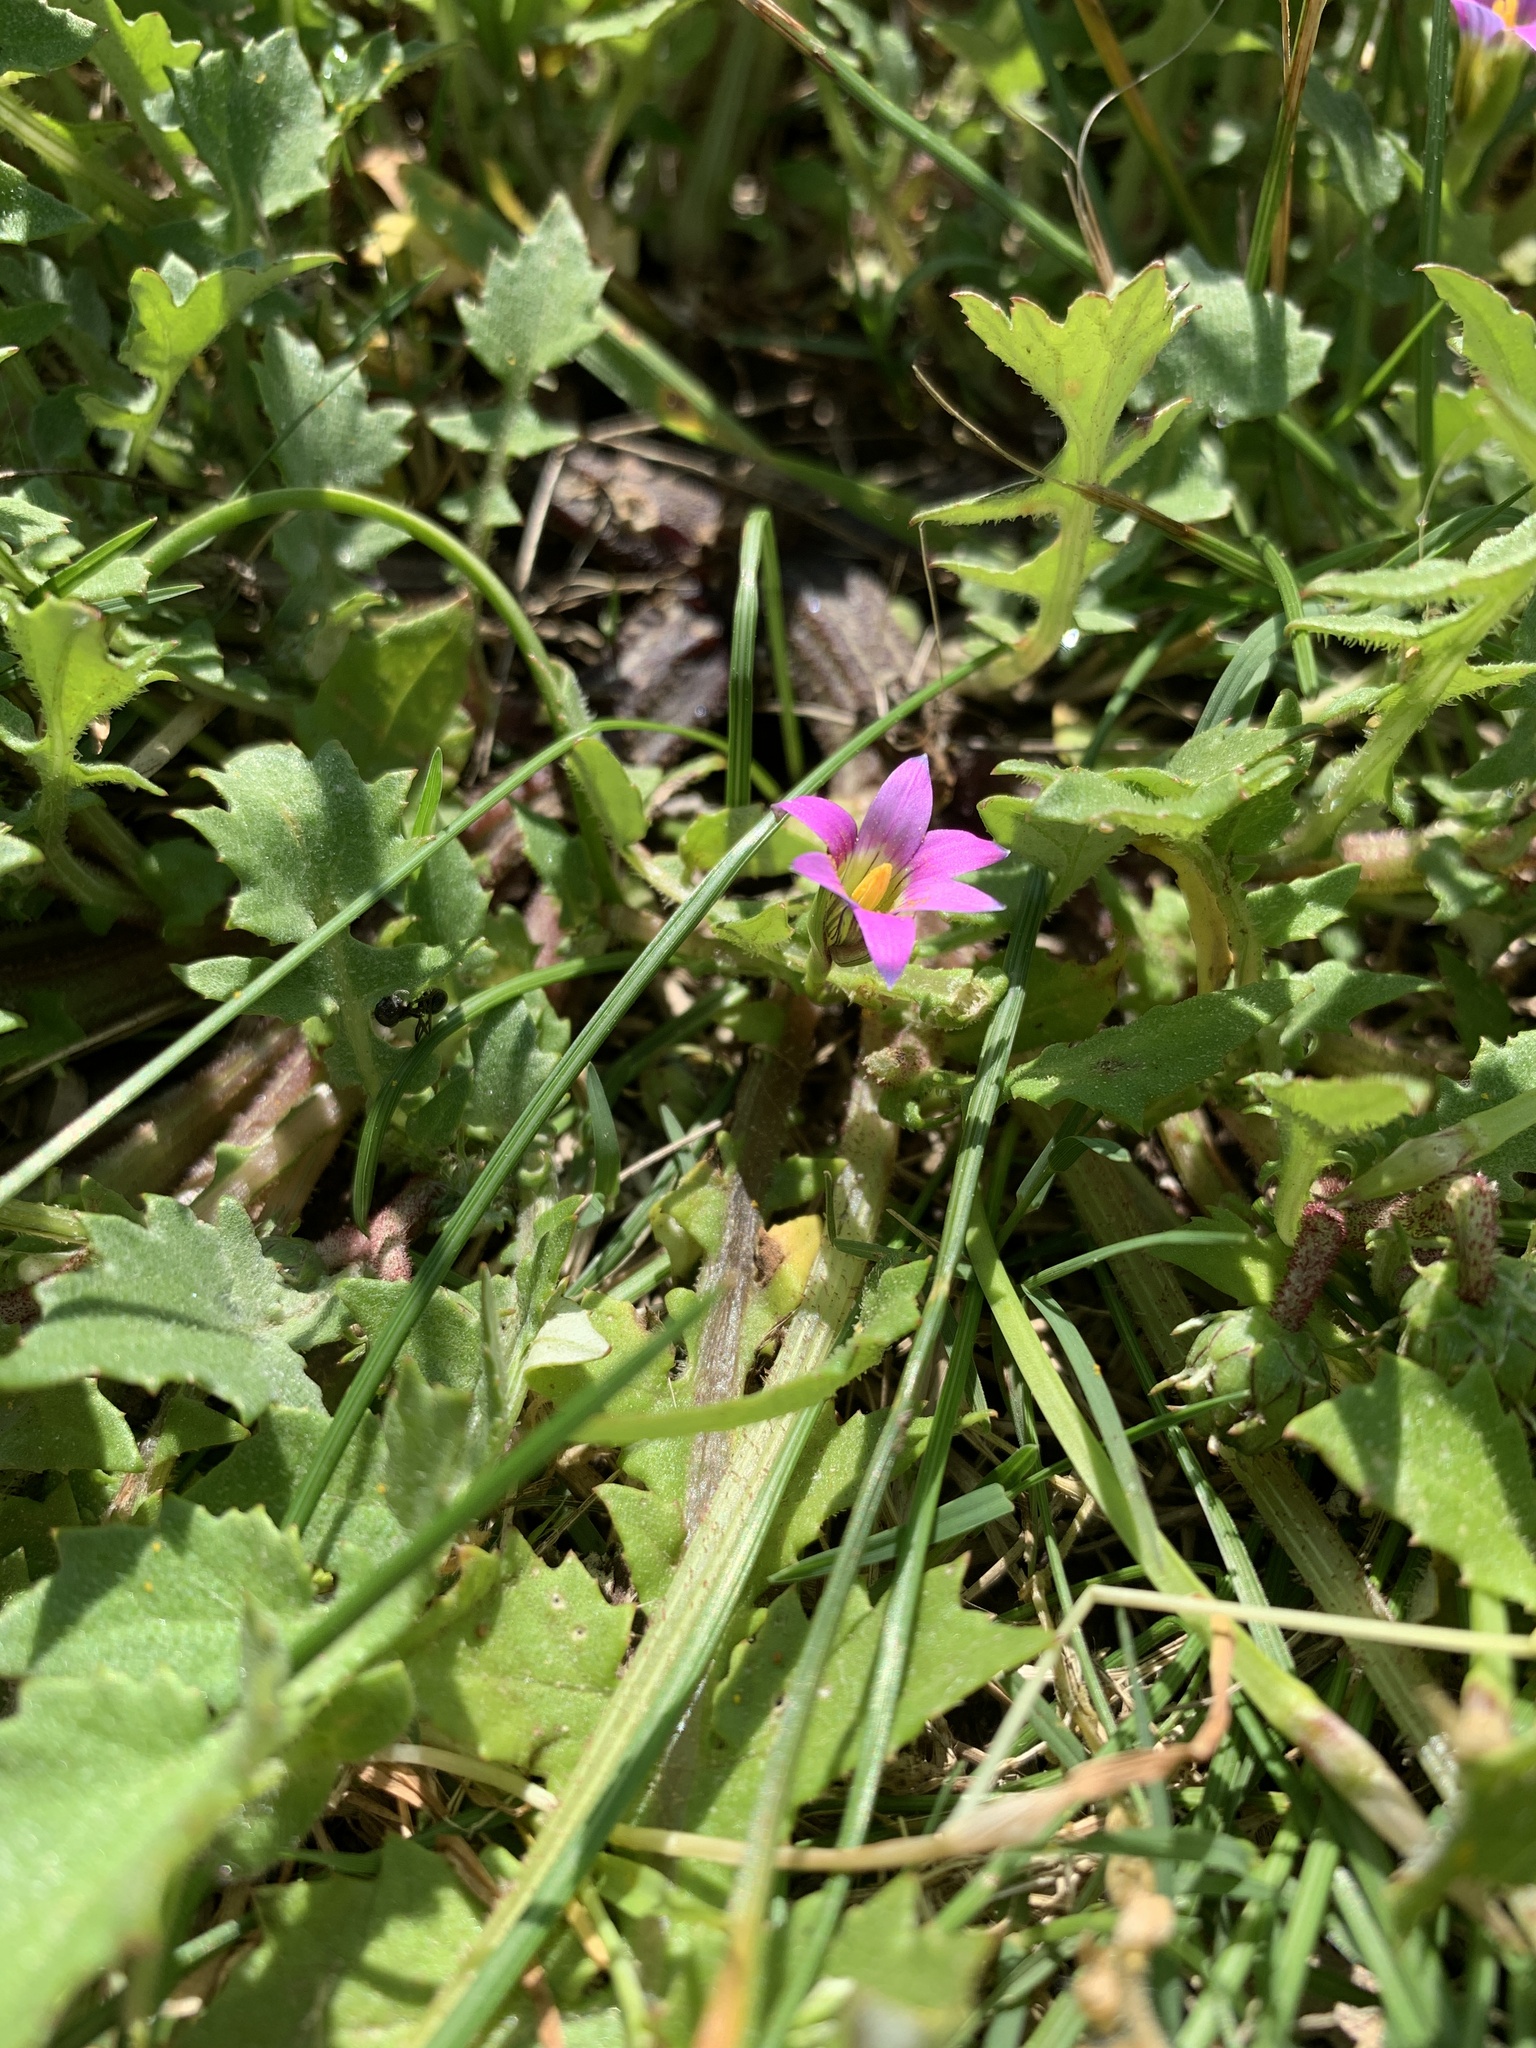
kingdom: Plantae
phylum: Tracheophyta
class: Liliopsida
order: Asparagales
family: Iridaceae
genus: Romulea
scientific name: Romulea rosea
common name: Oniongrass
